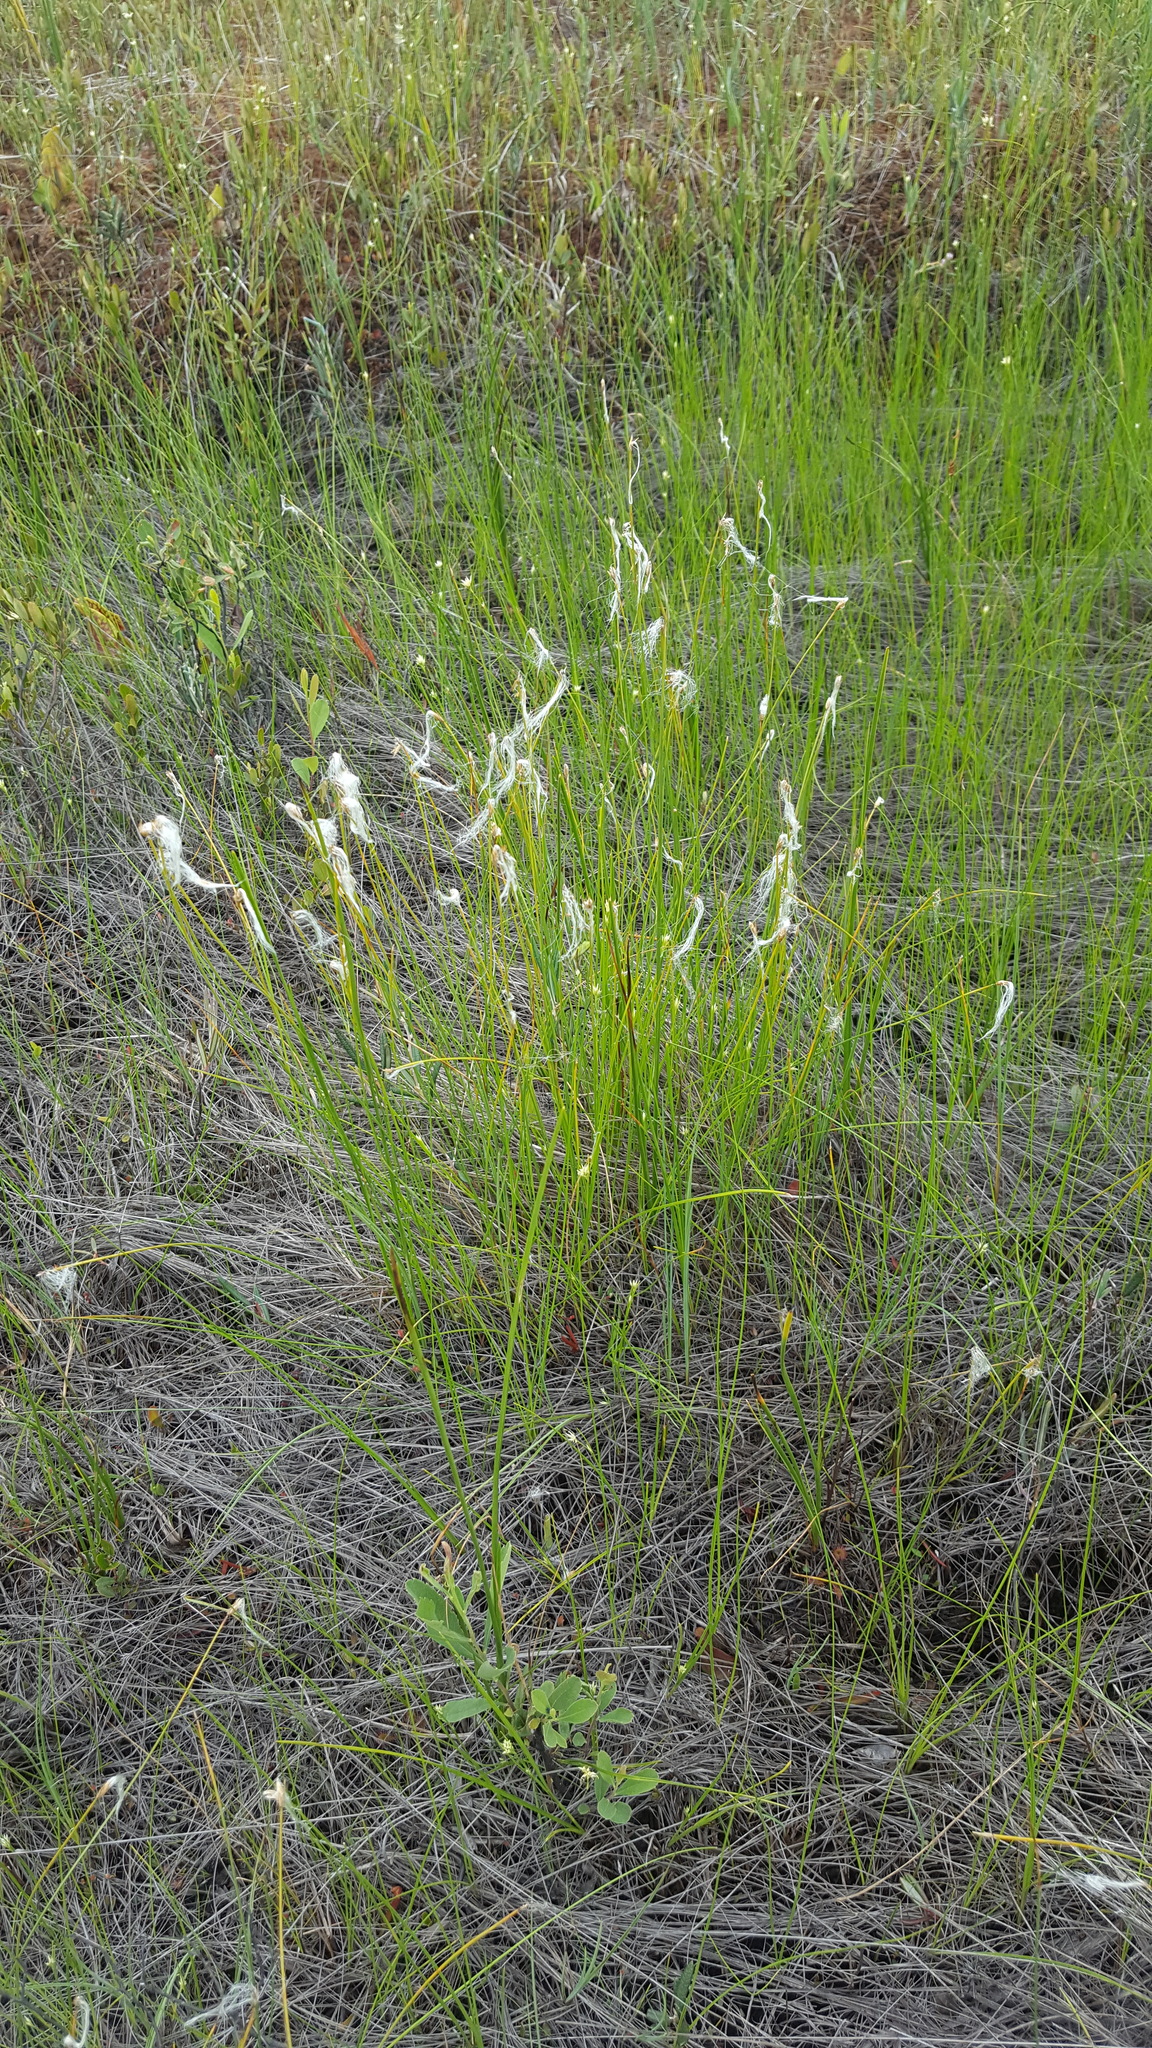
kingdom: Plantae
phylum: Tracheophyta
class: Liliopsida
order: Poales
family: Cyperaceae
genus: Trichophorum
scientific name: Trichophorum alpinum
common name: Alpine bulrush
